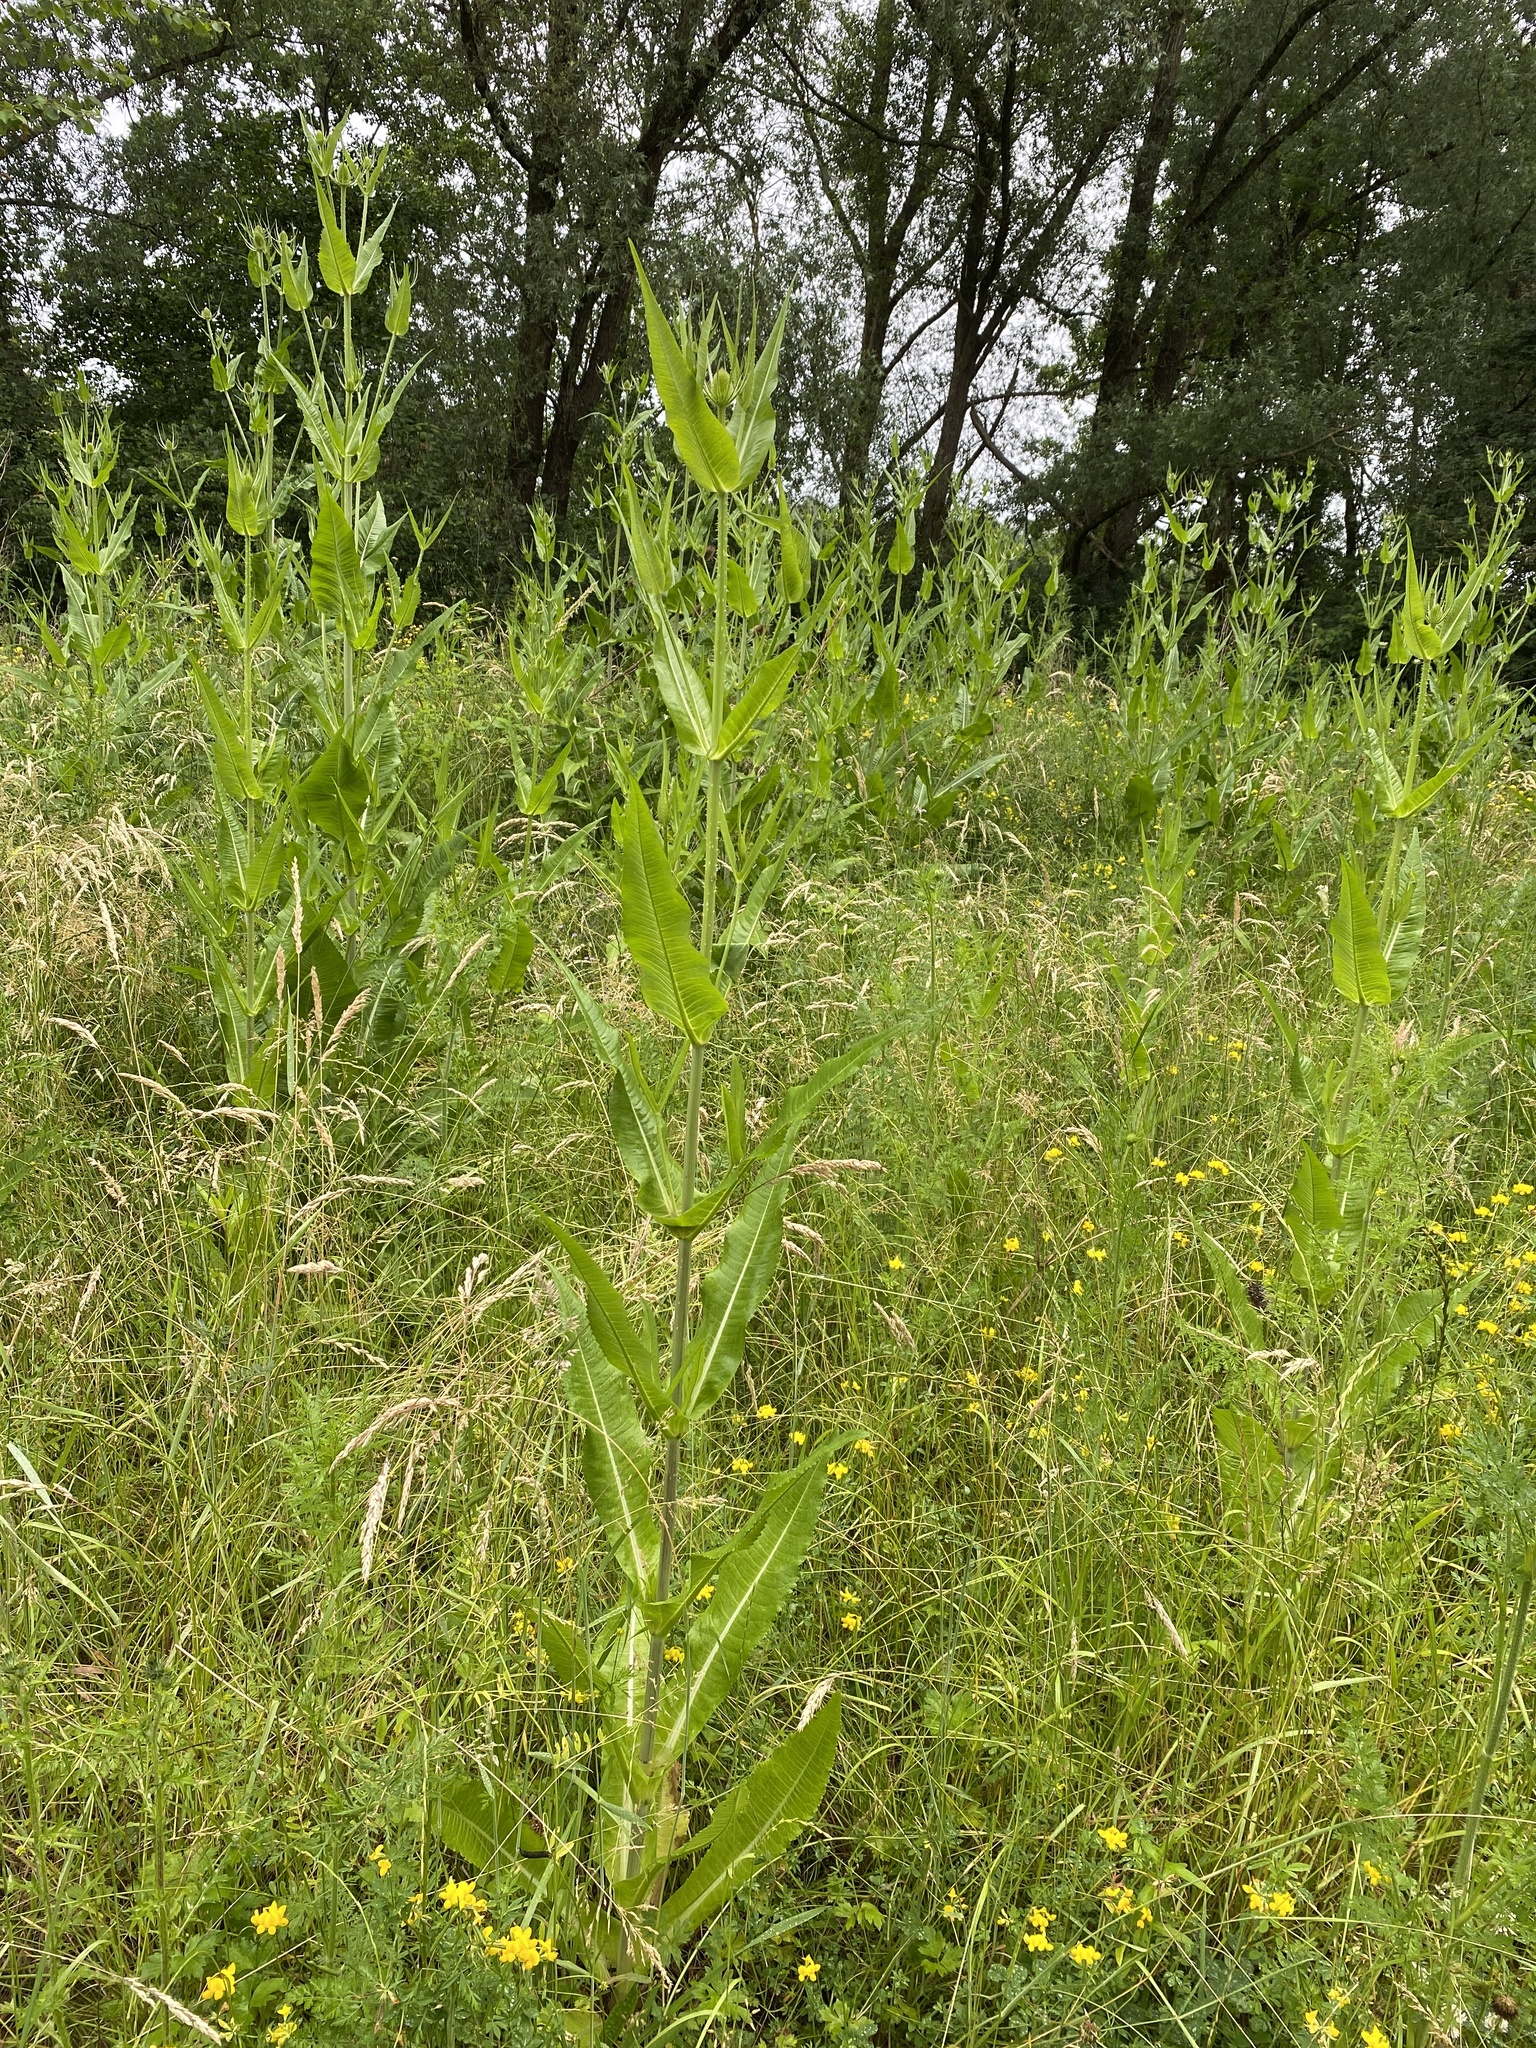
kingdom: Plantae
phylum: Tracheophyta
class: Magnoliopsida
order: Dipsacales
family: Caprifoliaceae
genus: Dipsacus
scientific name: Dipsacus fullonum
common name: Teasel
